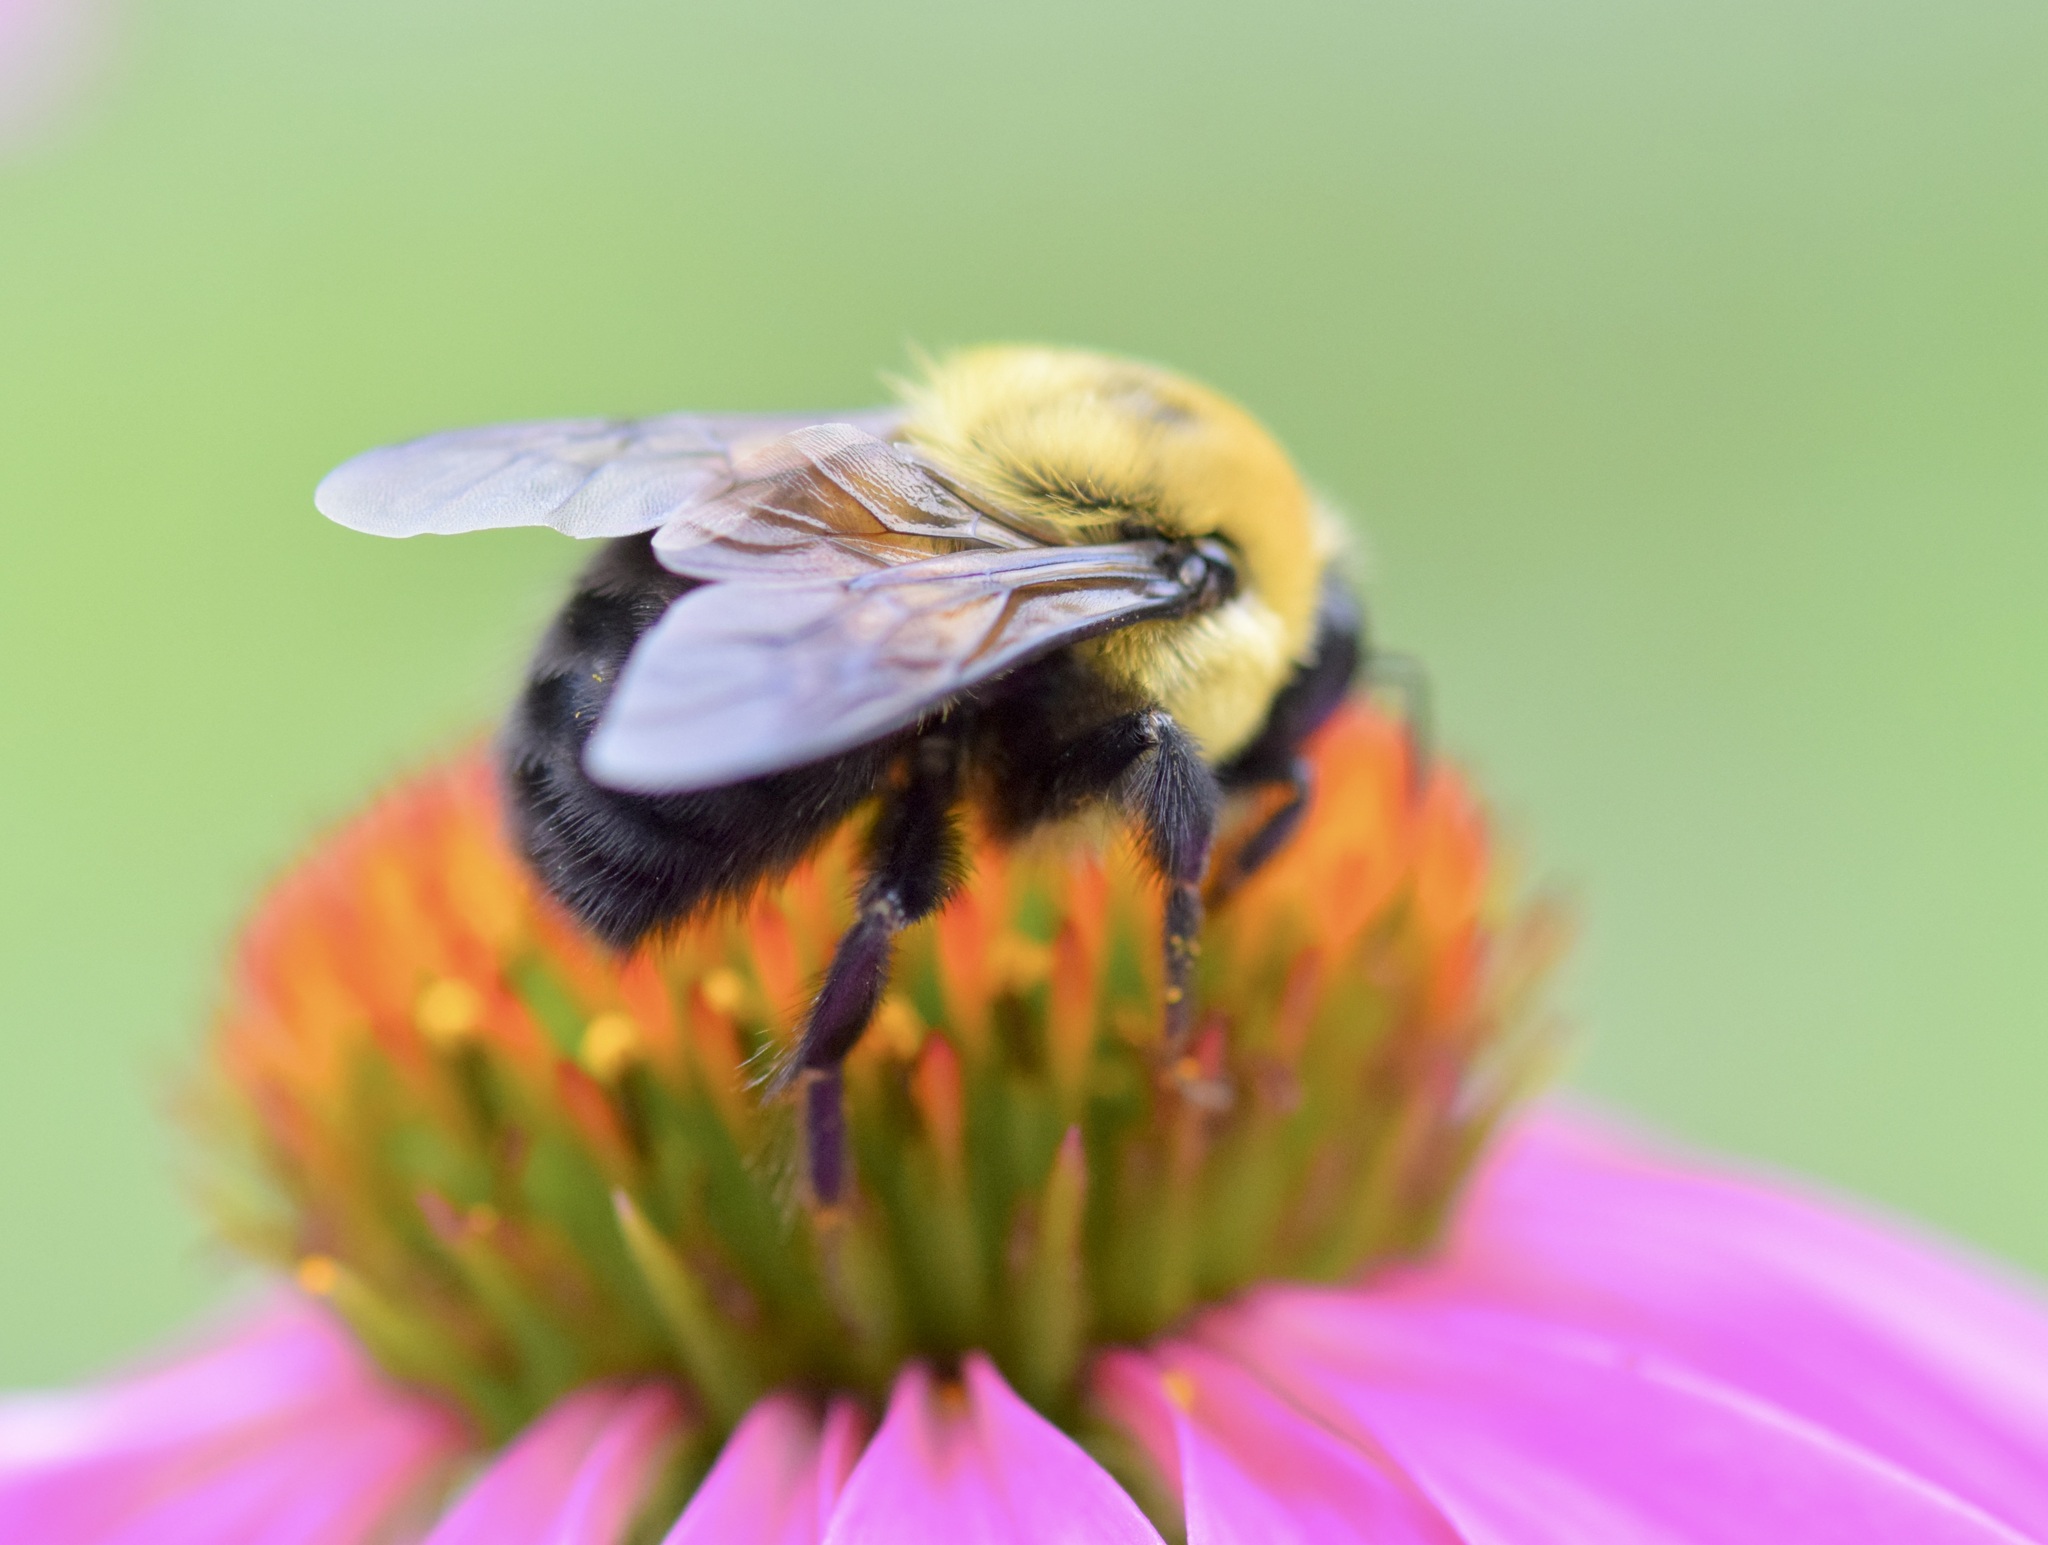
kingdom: Animalia
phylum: Arthropoda
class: Insecta
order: Hymenoptera
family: Apidae
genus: Bombus
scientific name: Bombus griseocollis
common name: Brown-belted bumble bee
